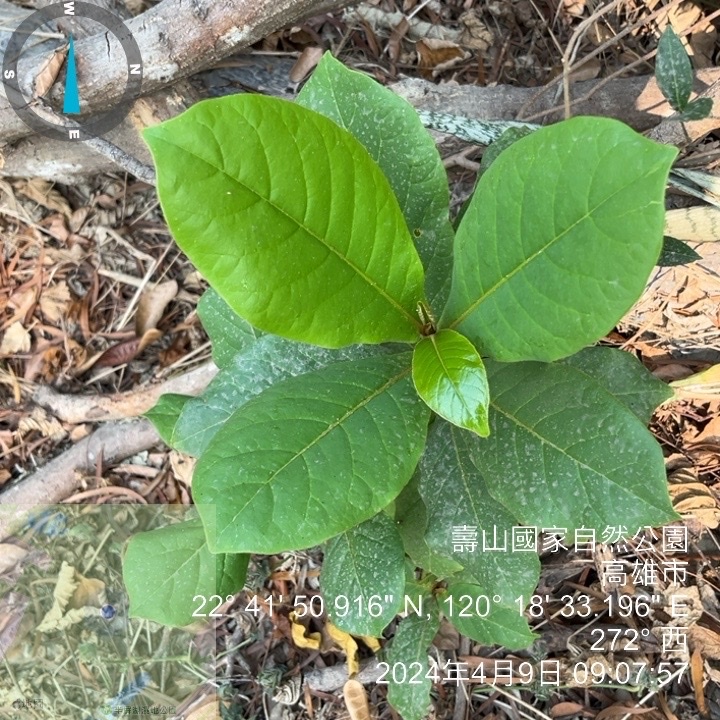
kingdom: Plantae
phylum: Tracheophyta
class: Magnoliopsida
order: Myrtales
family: Combretaceae
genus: Terminalia
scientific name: Terminalia catappa
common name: Tropical almond
